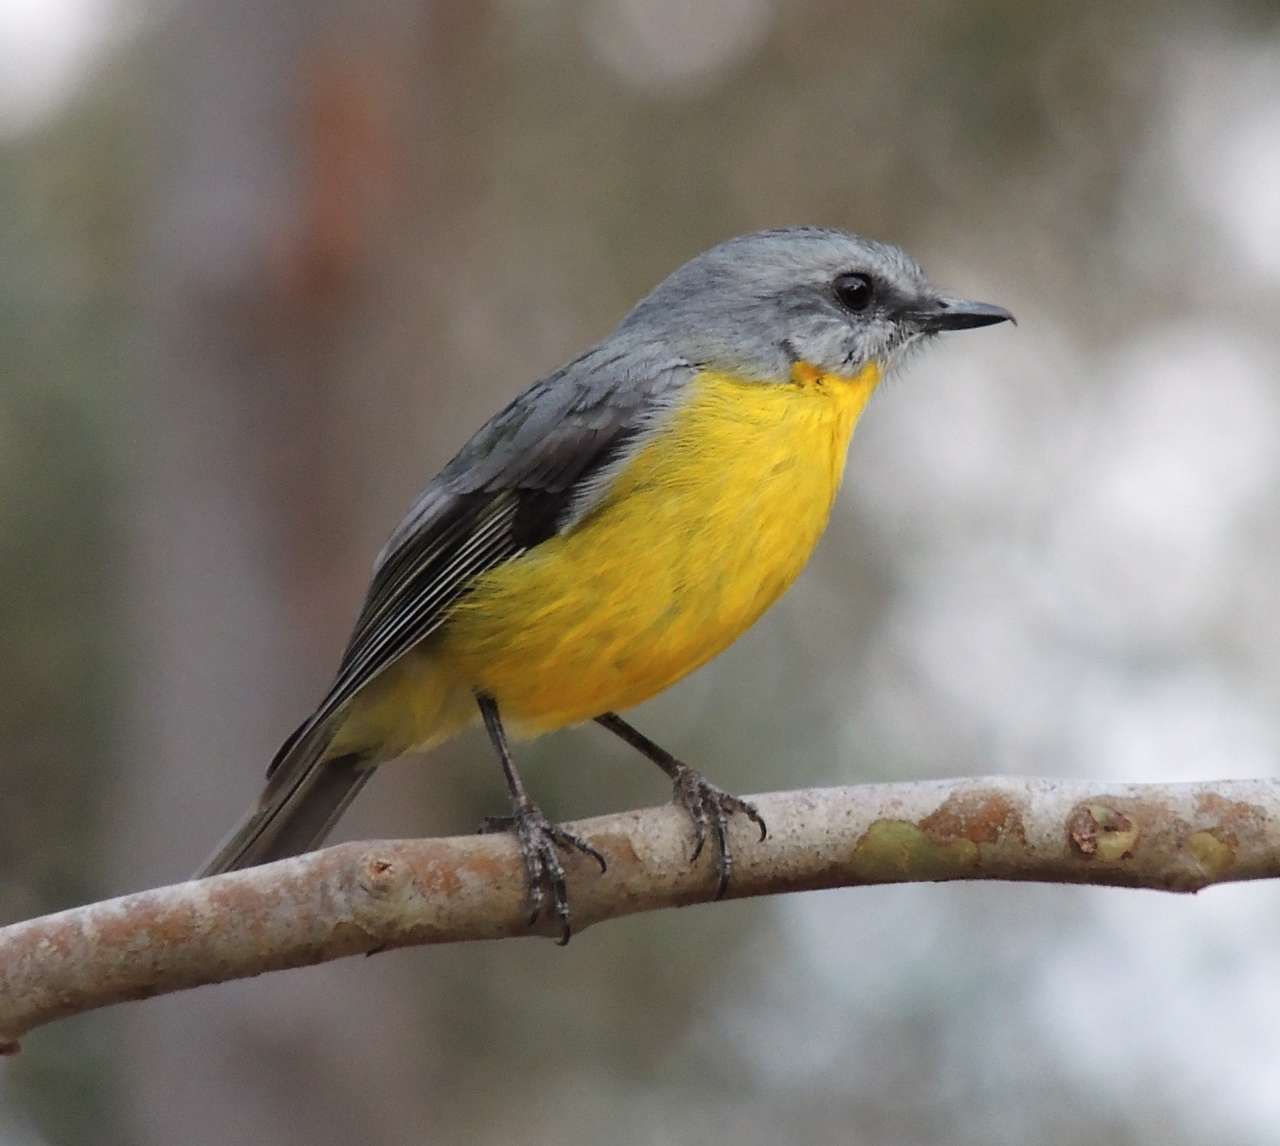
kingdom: Animalia
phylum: Chordata
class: Aves
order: Passeriformes
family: Petroicidae
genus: Eopsaltria
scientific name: Eopsaltria australis
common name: Eastern yellow robin
